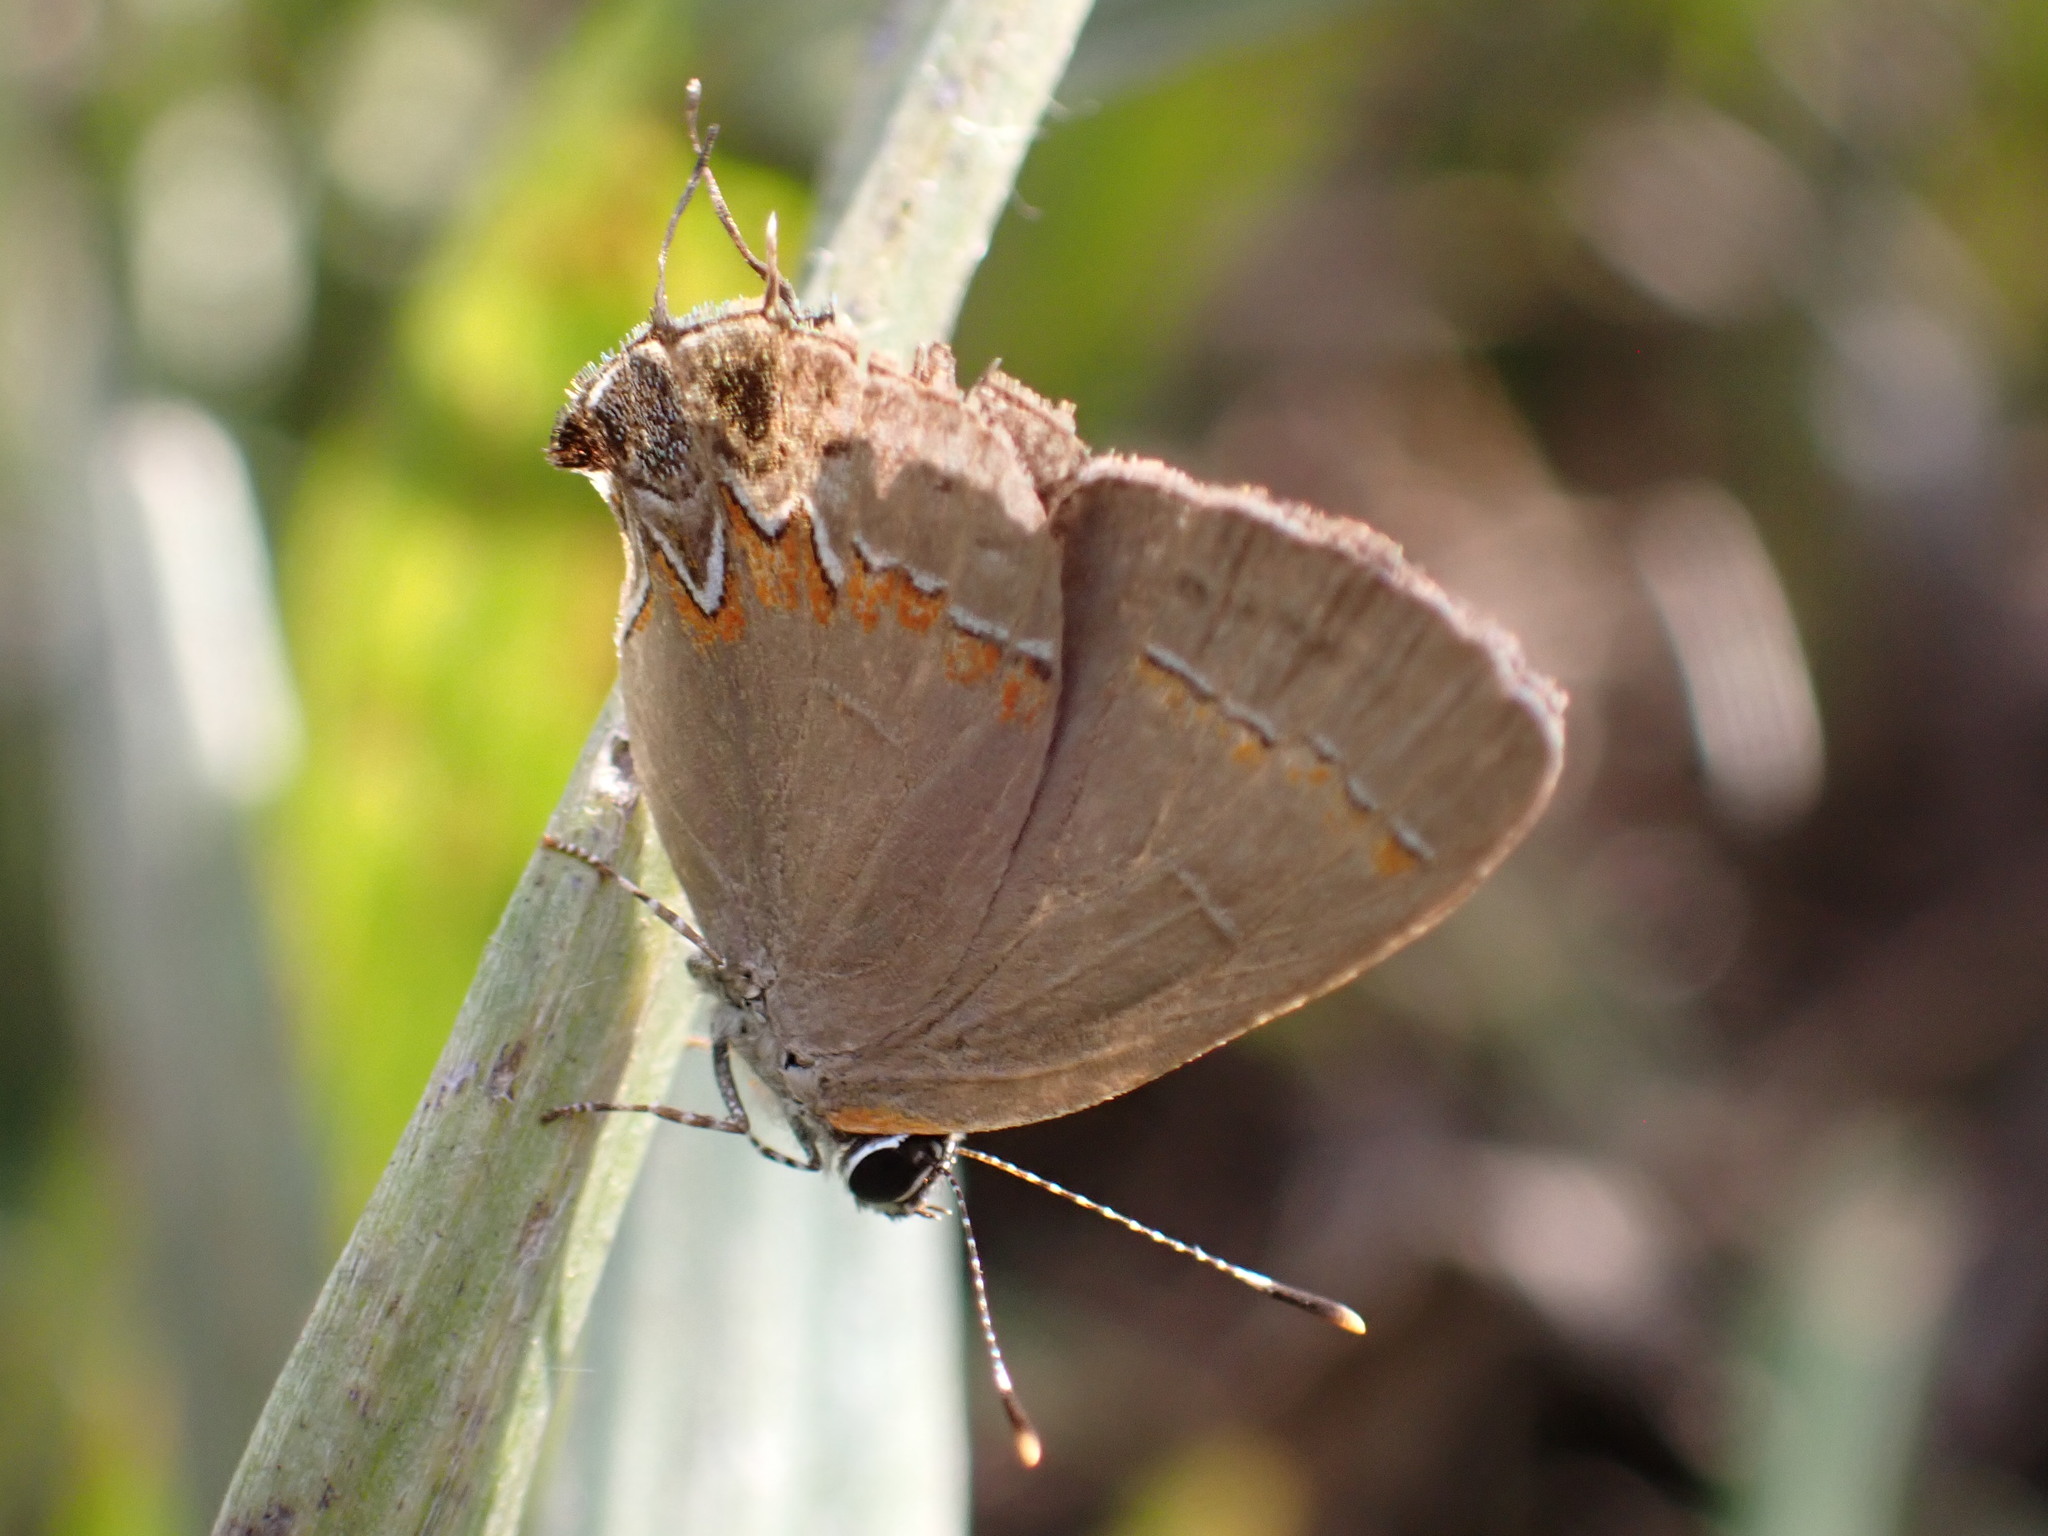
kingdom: Animalia
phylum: Arthropoda
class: Insecta
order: Lepidoptera
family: Lycaenidae
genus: Calycopis
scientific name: Calycopis cecrops
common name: Red-banded hairstreak
